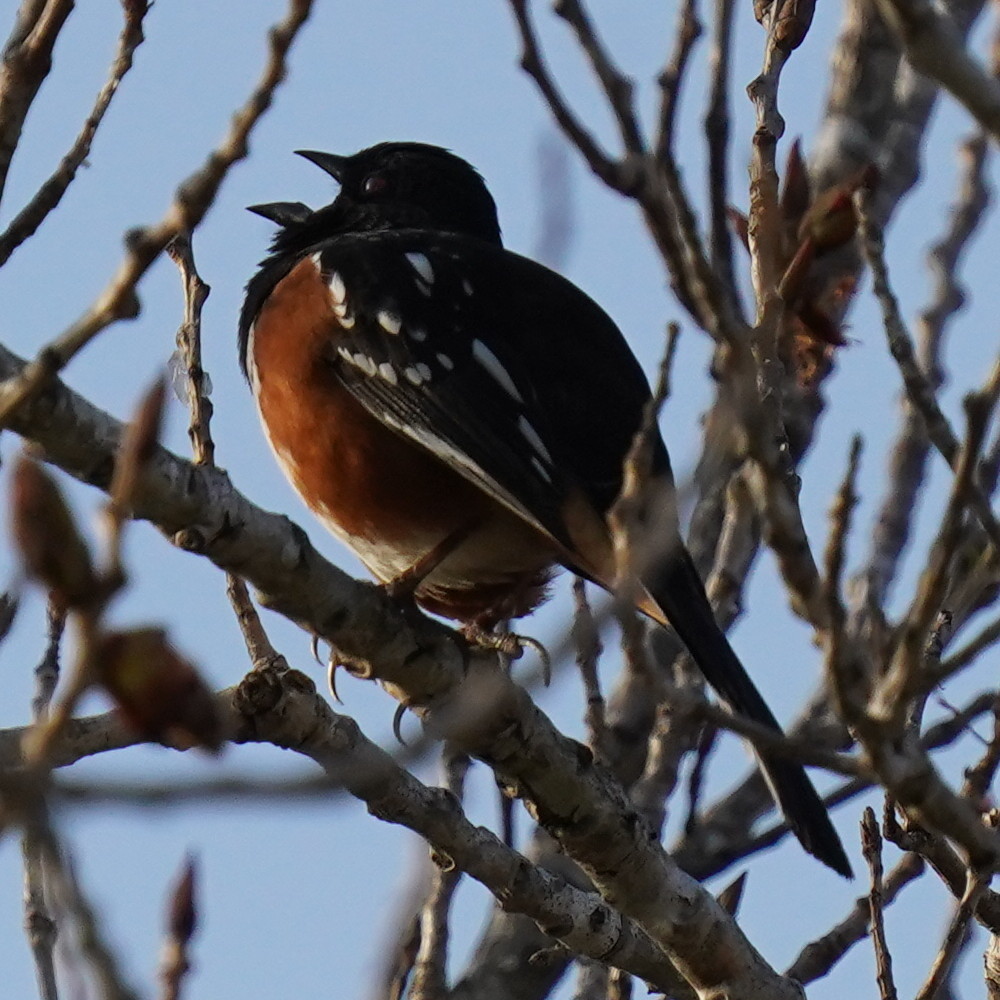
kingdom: Animalia
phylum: Chordata
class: Aves
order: Passeriformes
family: Passerellidae
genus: Pipilo
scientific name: Pipilo maculatus
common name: Spotted towhee
